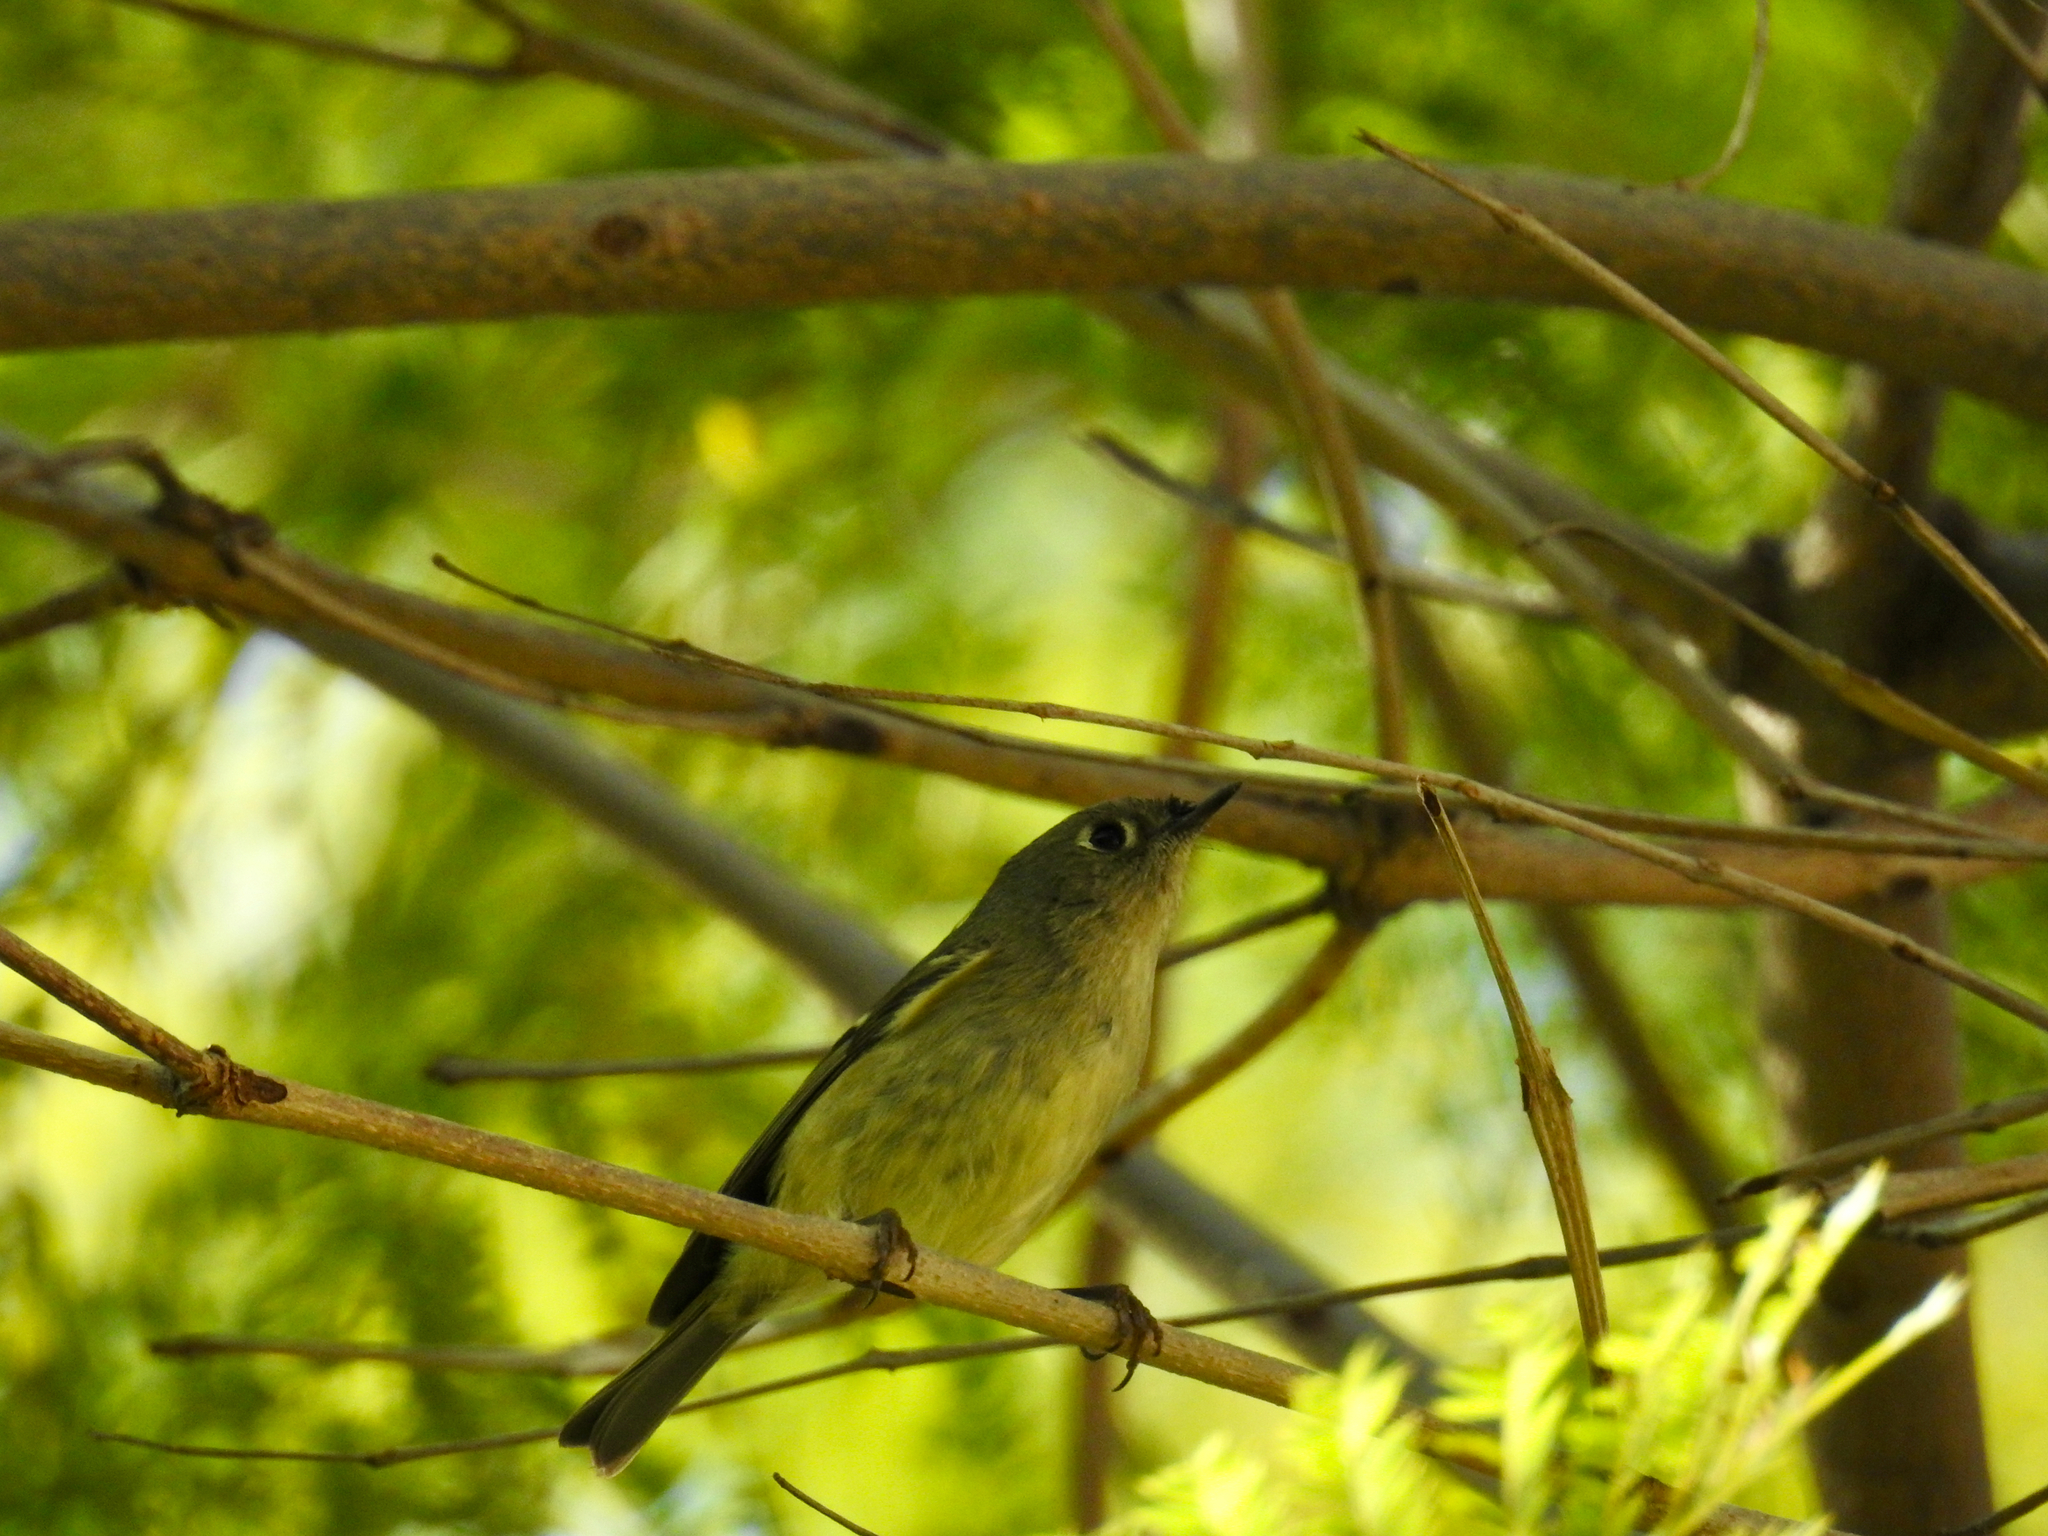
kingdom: Animalia
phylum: Chordata
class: Aves
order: Passeriformes
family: Regulidae
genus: Regulus
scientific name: Regulus calendula
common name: Ruby-crowned kinglet
